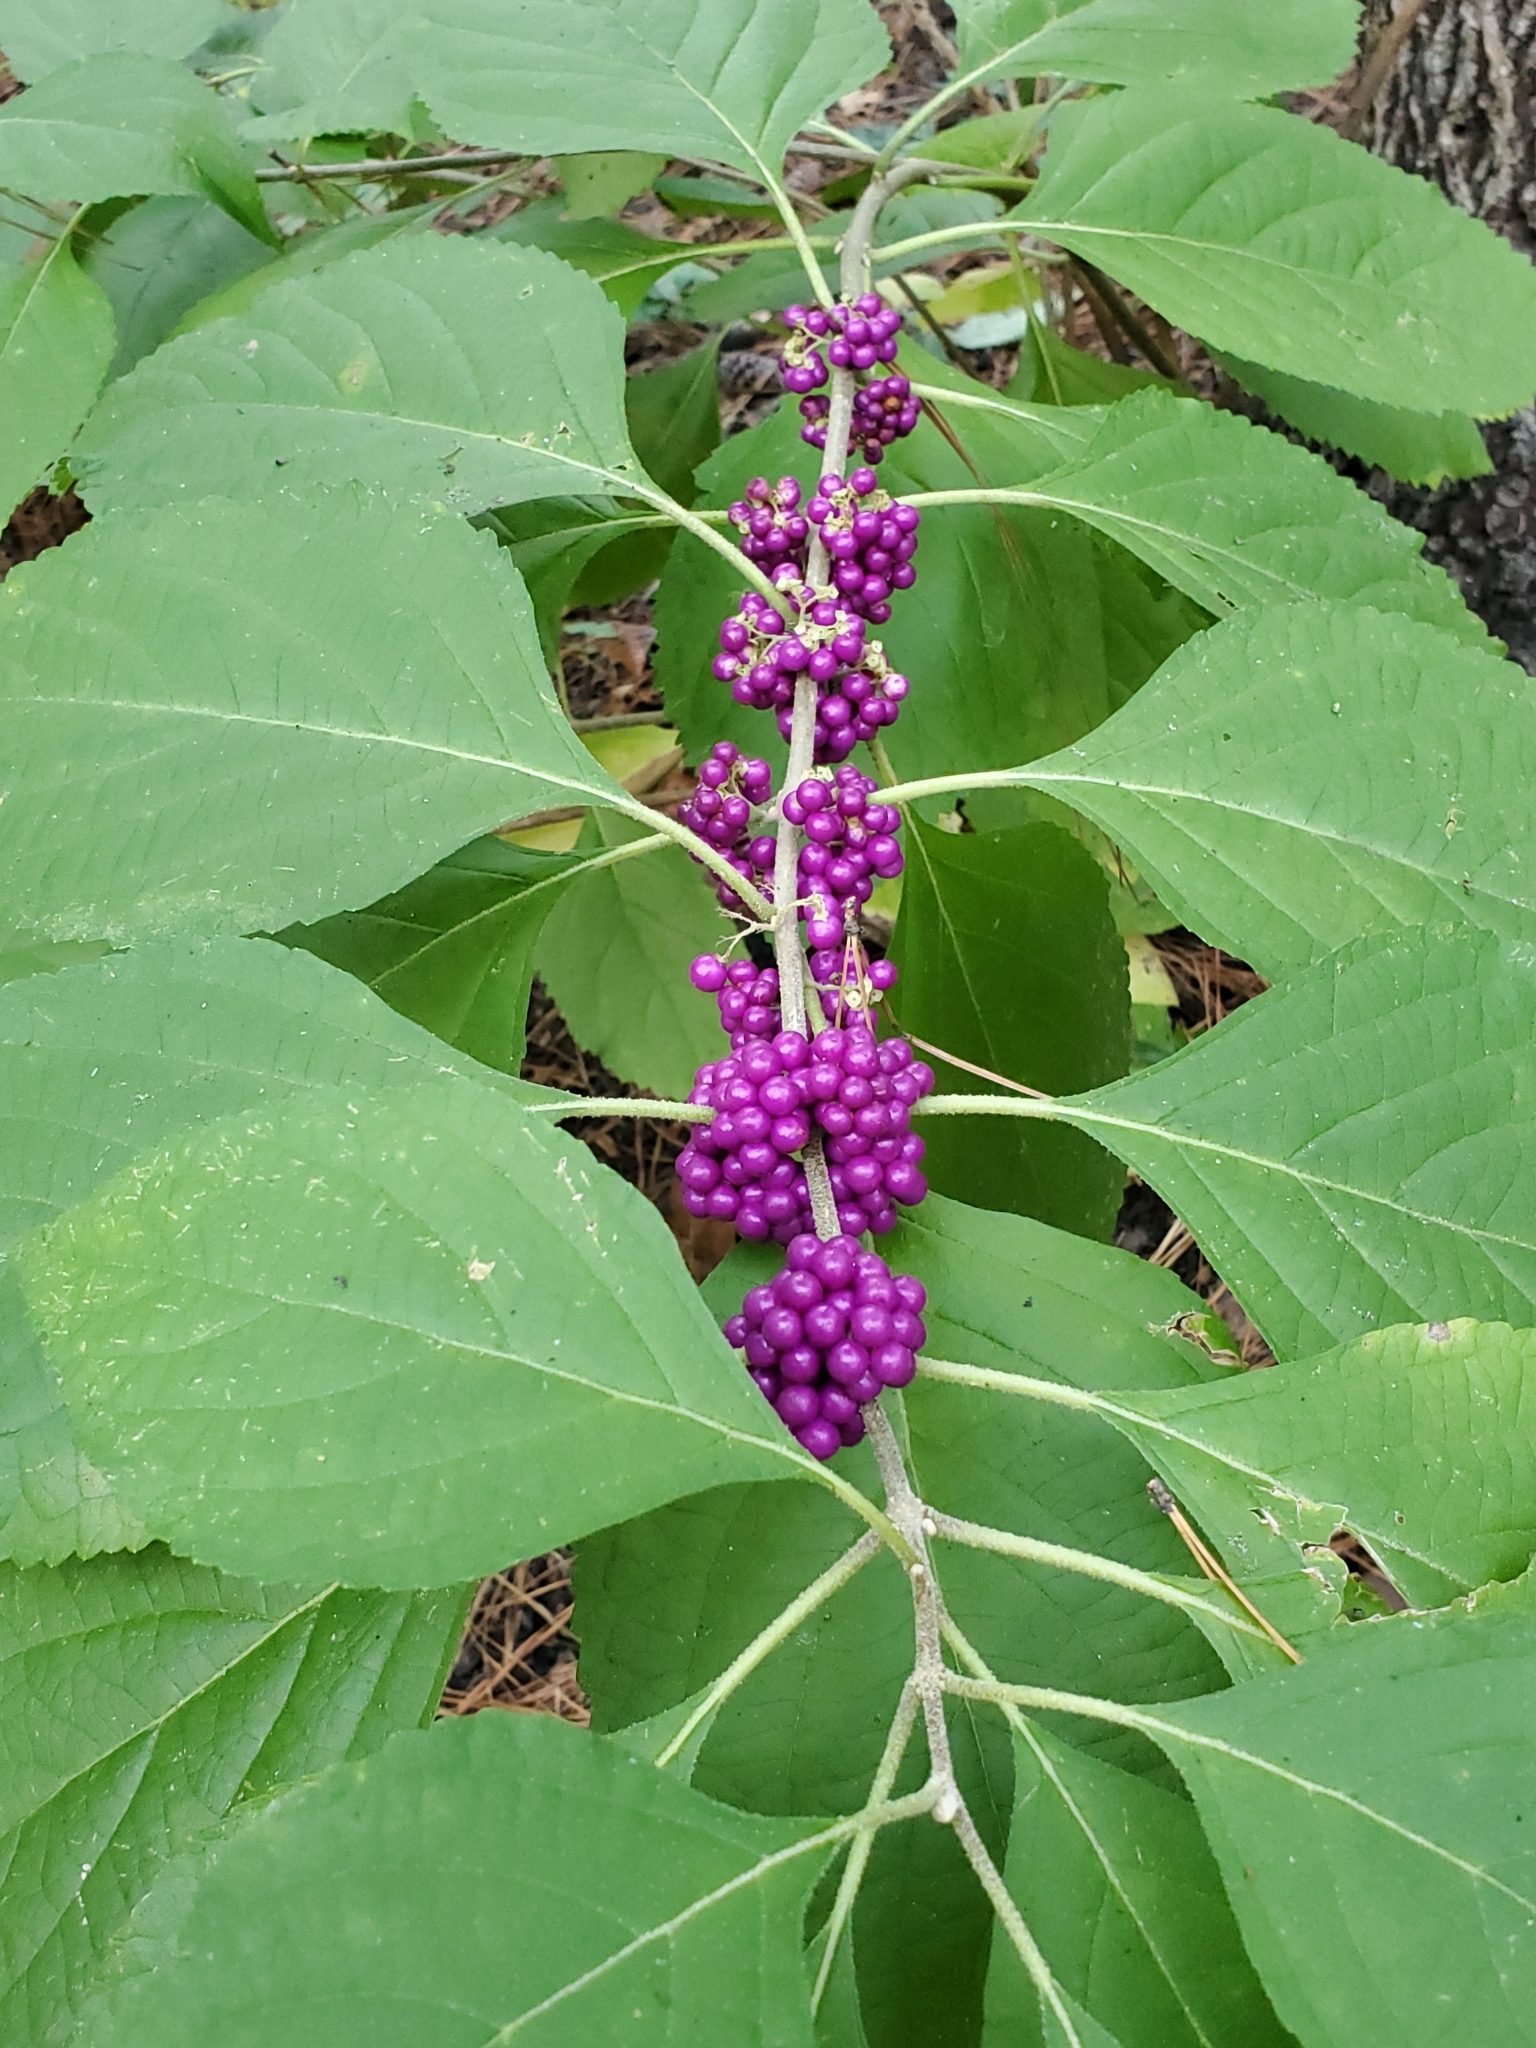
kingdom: Plantae
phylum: Tracheophyta
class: Magnoliopsida
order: Lamiales
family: Lamiaceae
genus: Callicarpa
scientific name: Callicarpa americana
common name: American beautyberry
